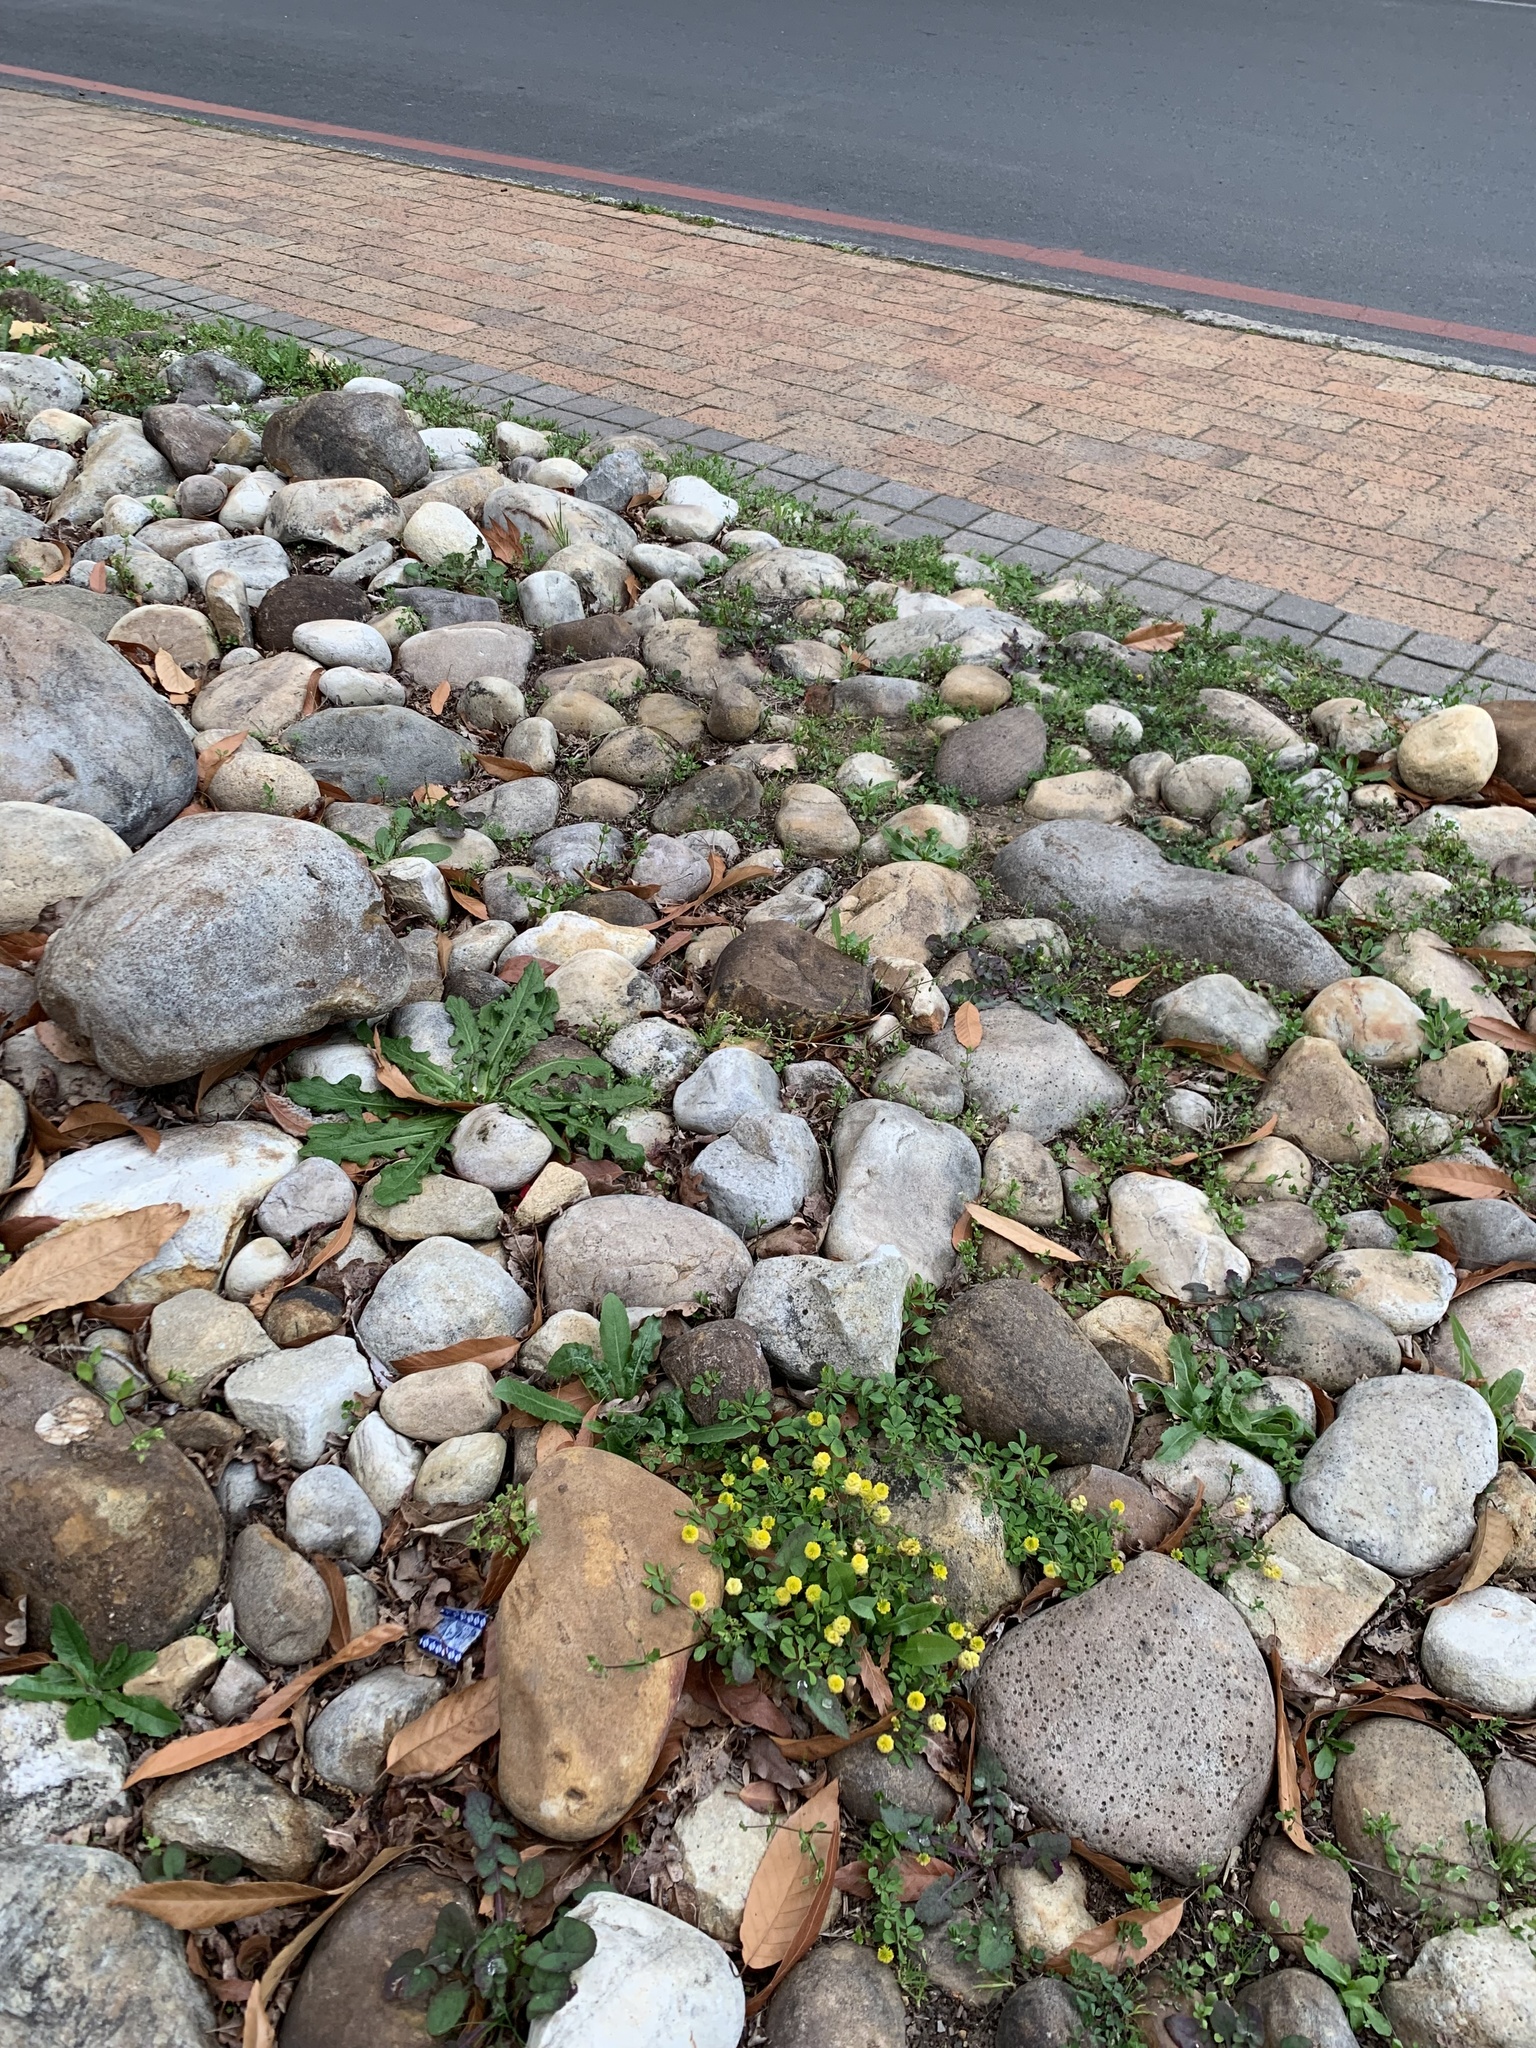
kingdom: Plantae
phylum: Tracheophyta
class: Magnoliopsida
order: Fabales
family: Fabaceae
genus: Trifolium
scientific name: Trifolium campestre
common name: Field clover
